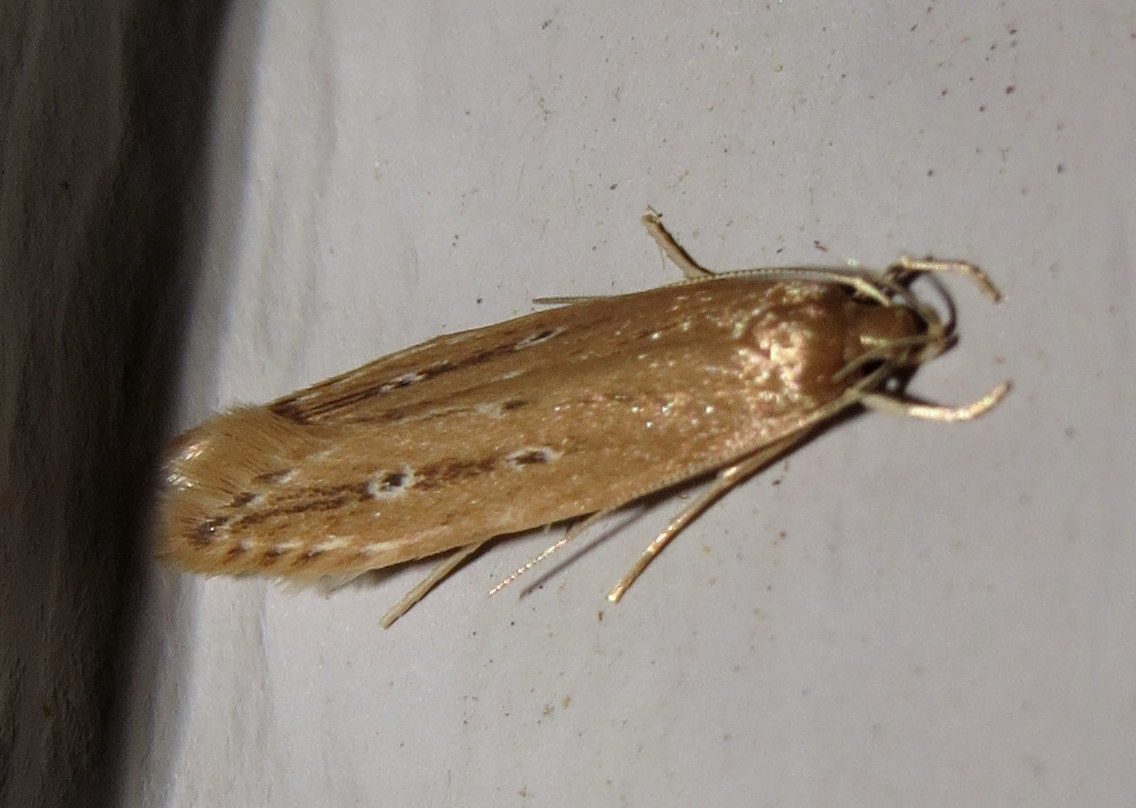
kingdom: Animalia
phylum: Arthropoda
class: Insecta
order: Lepidoptera
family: Cosmopterigidae
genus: Limnaecia
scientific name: Limnaecia phragmitella
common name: Bulrush cosmet
